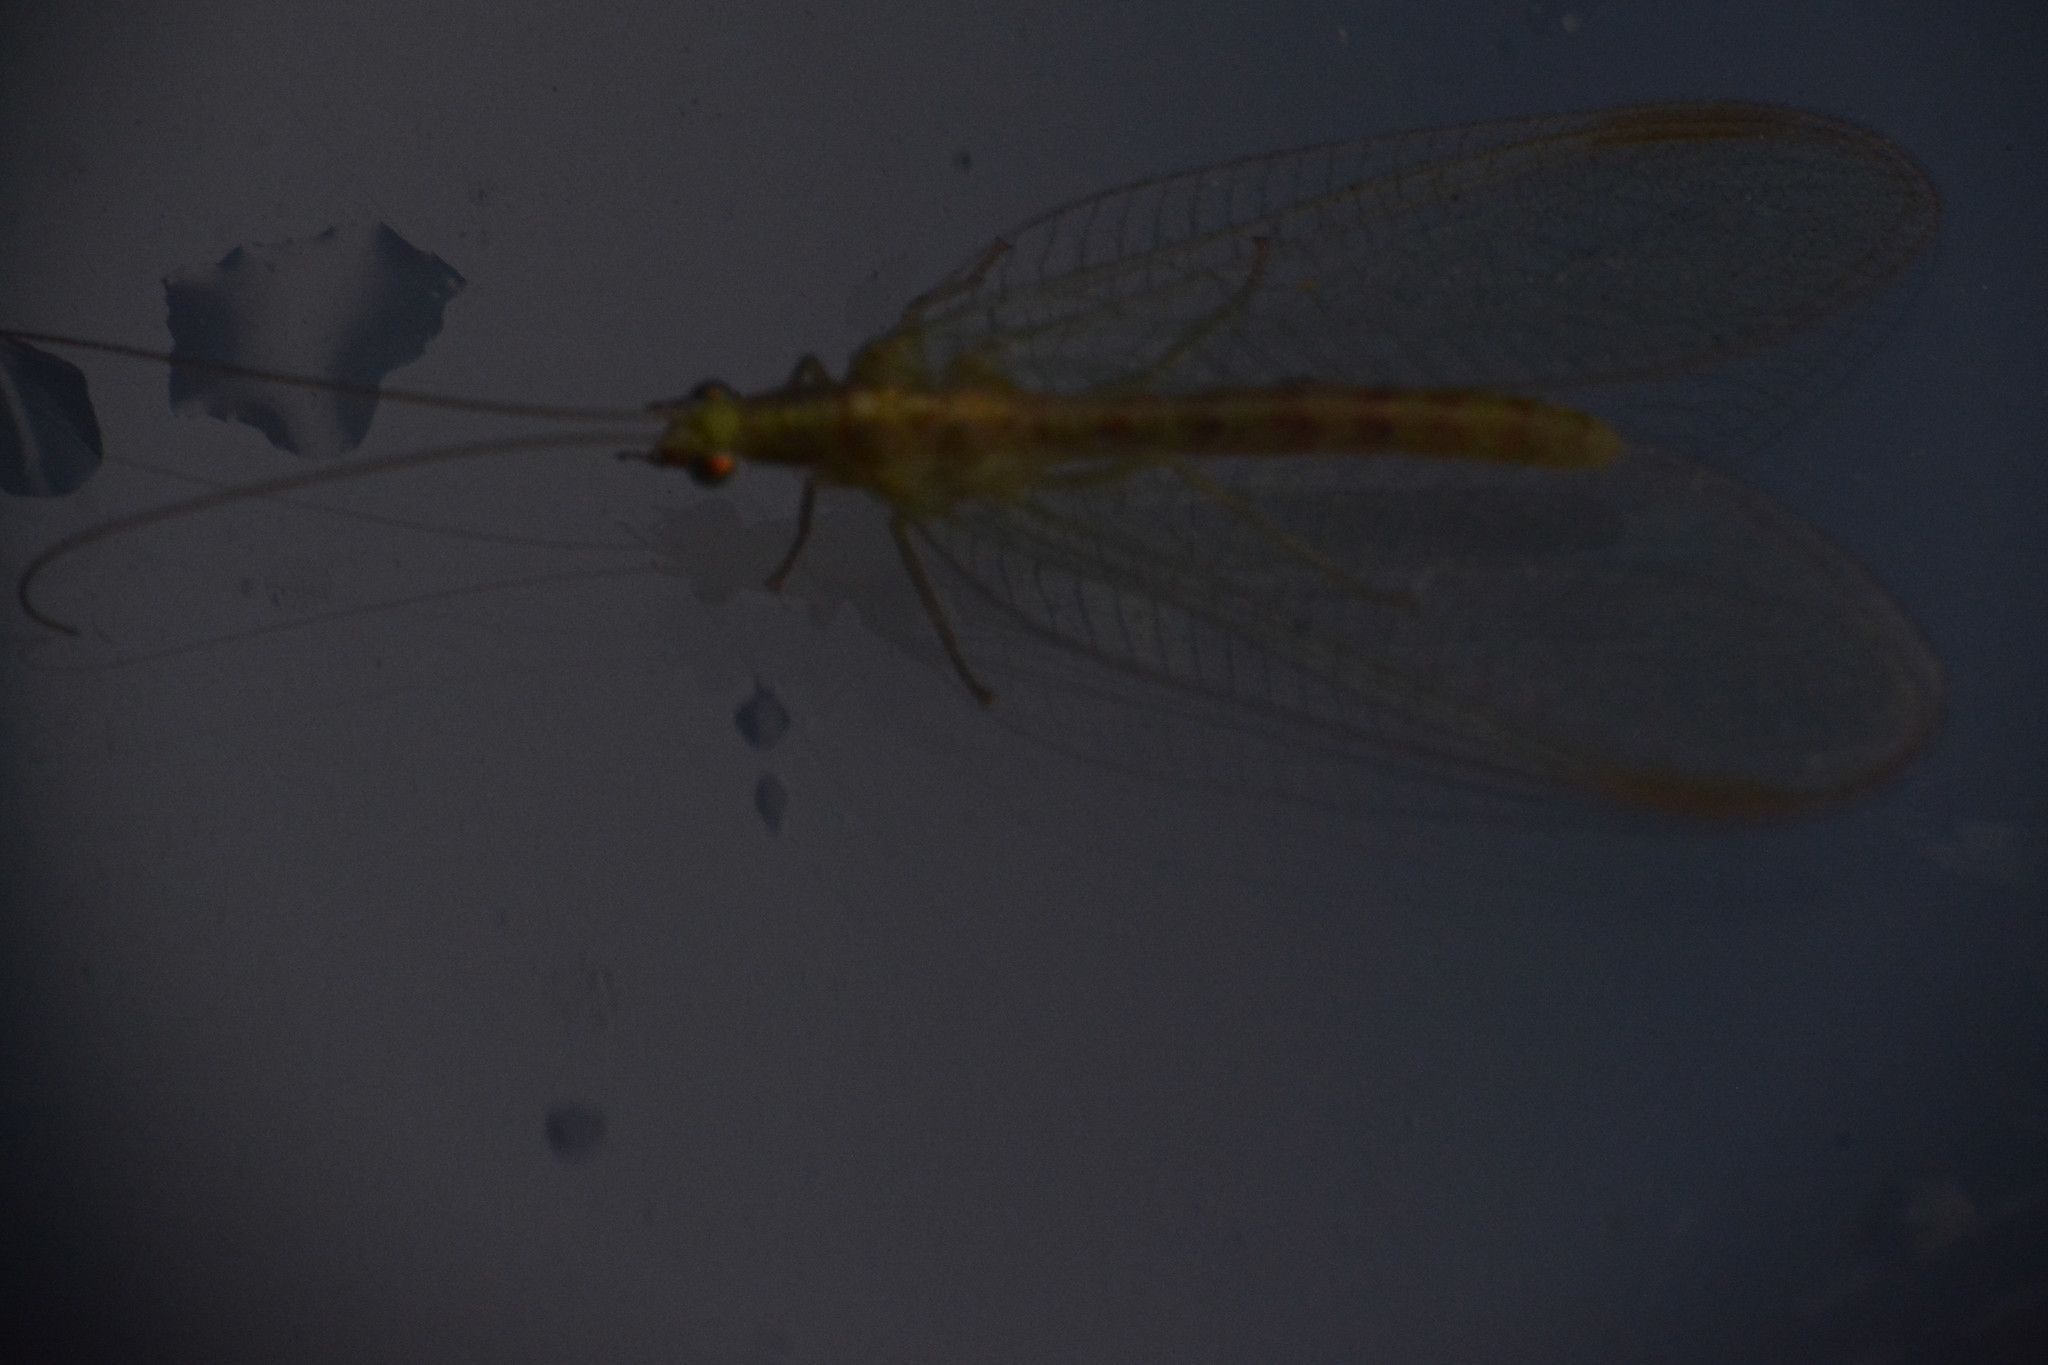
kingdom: Animalia
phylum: Arthropoda
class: Insecta
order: Neuroptera
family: Chrysopidae
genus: Chrysoperla
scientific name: Chrysoperla
